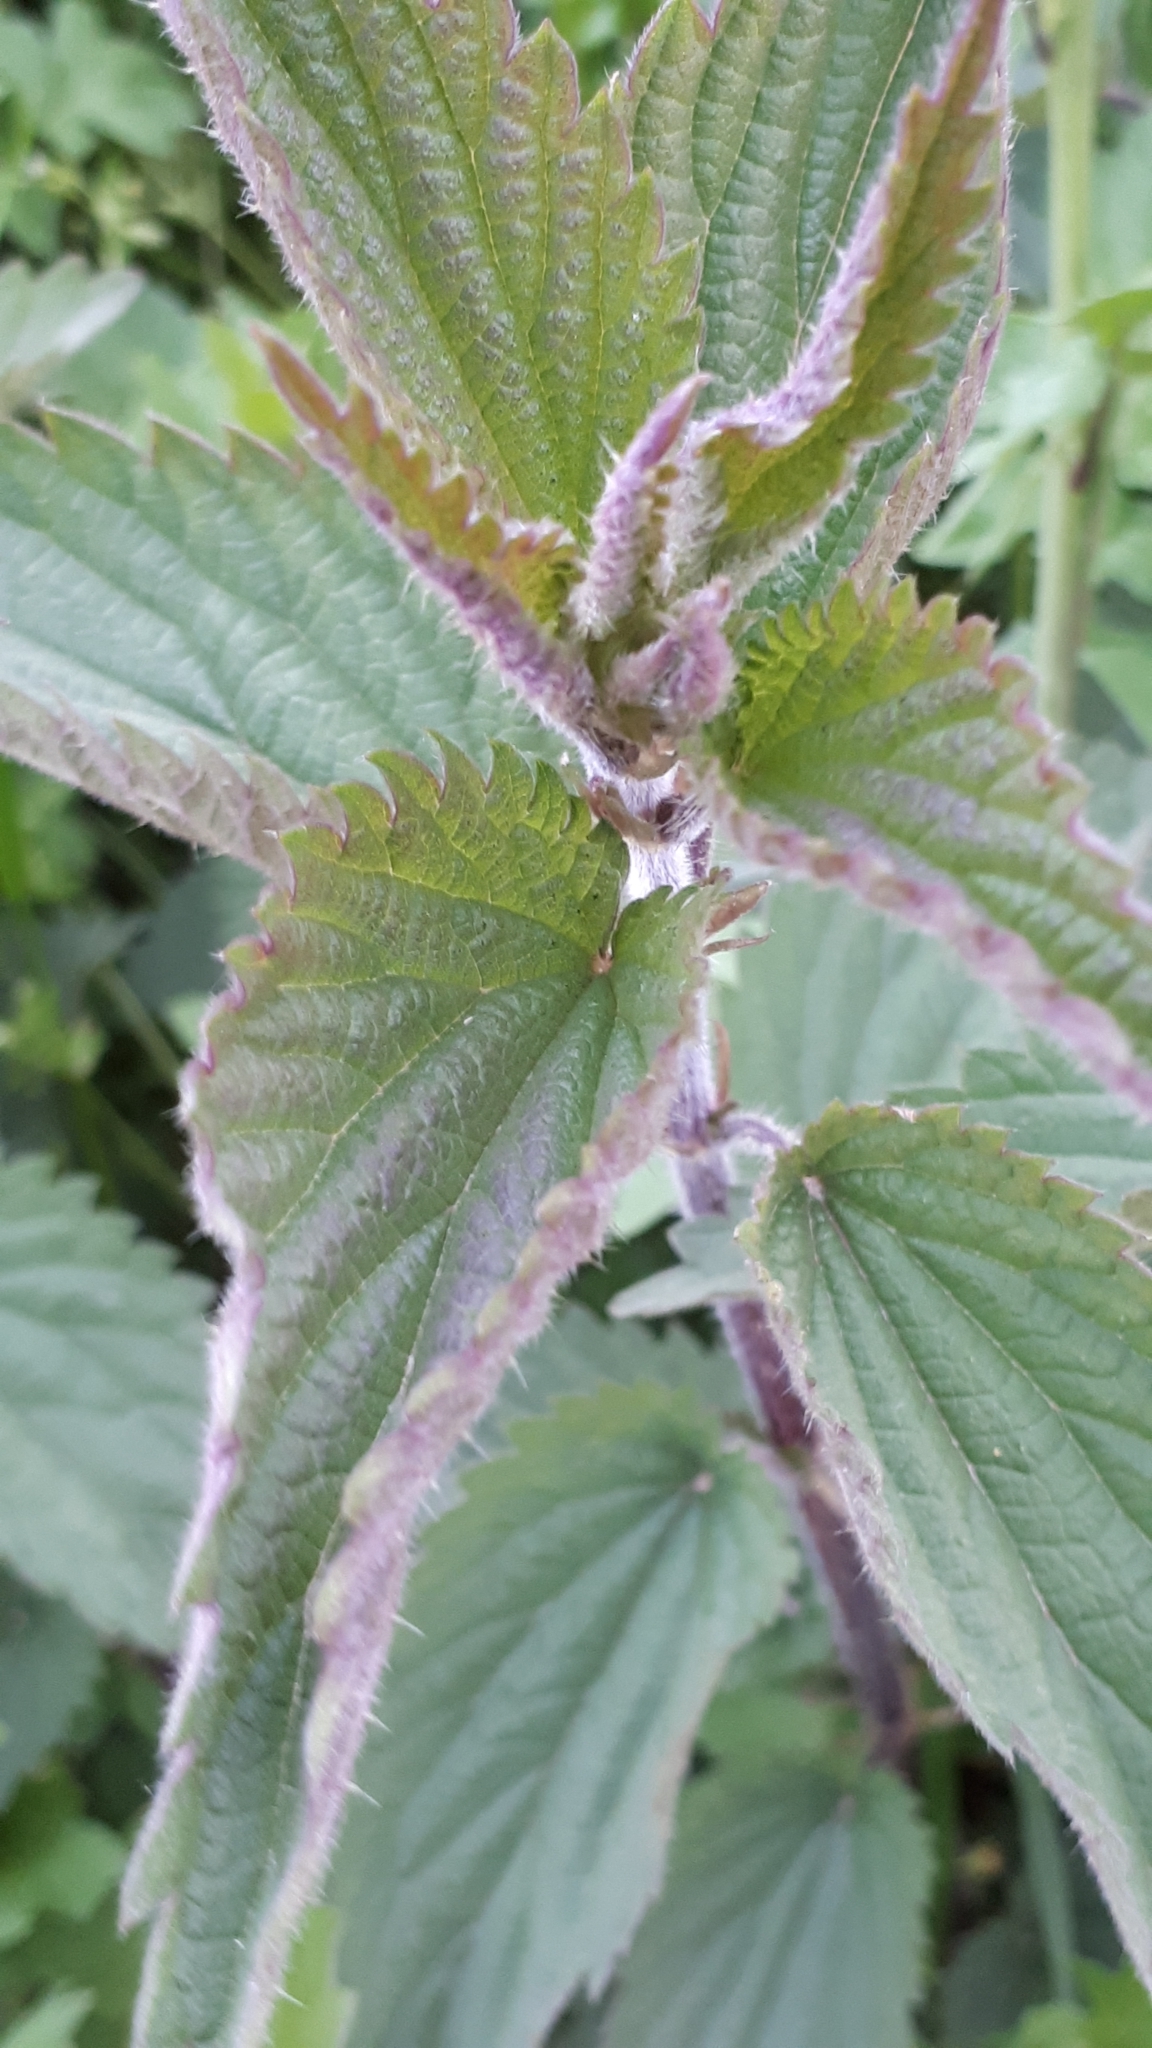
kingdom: Plantae
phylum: Tracheophyta
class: Magnoliopsida
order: Rosales
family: Urticaceae
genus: Urtica
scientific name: Urtica dioica
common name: Common nettle
